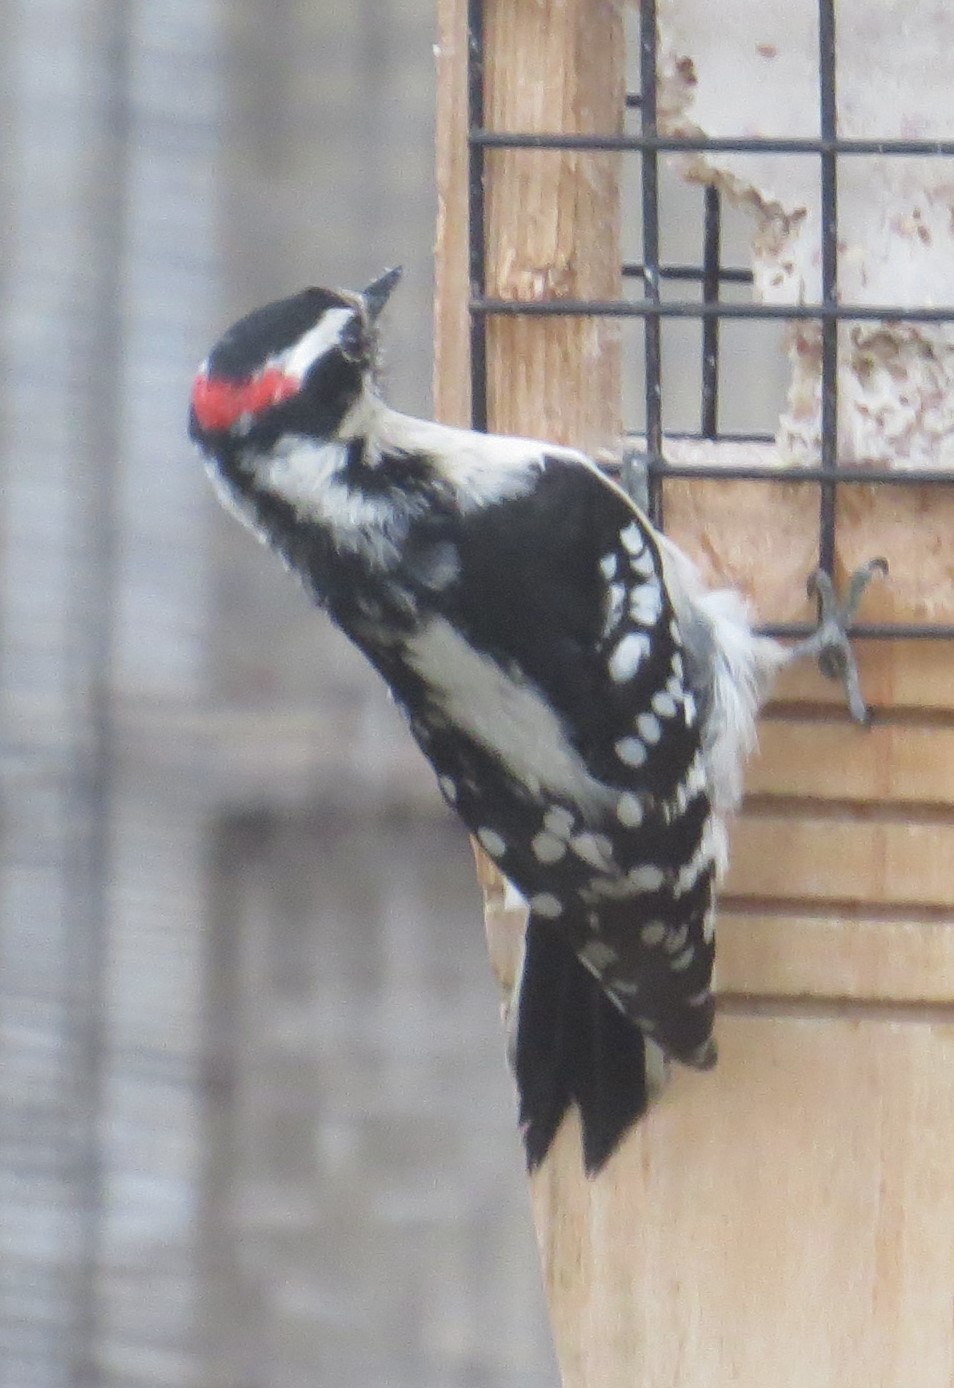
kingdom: Animalia
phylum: Chordata
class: Aves
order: Piciformes
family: Picidae
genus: Dryobates
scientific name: Dryobates pubescens
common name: Downy woodpecker
